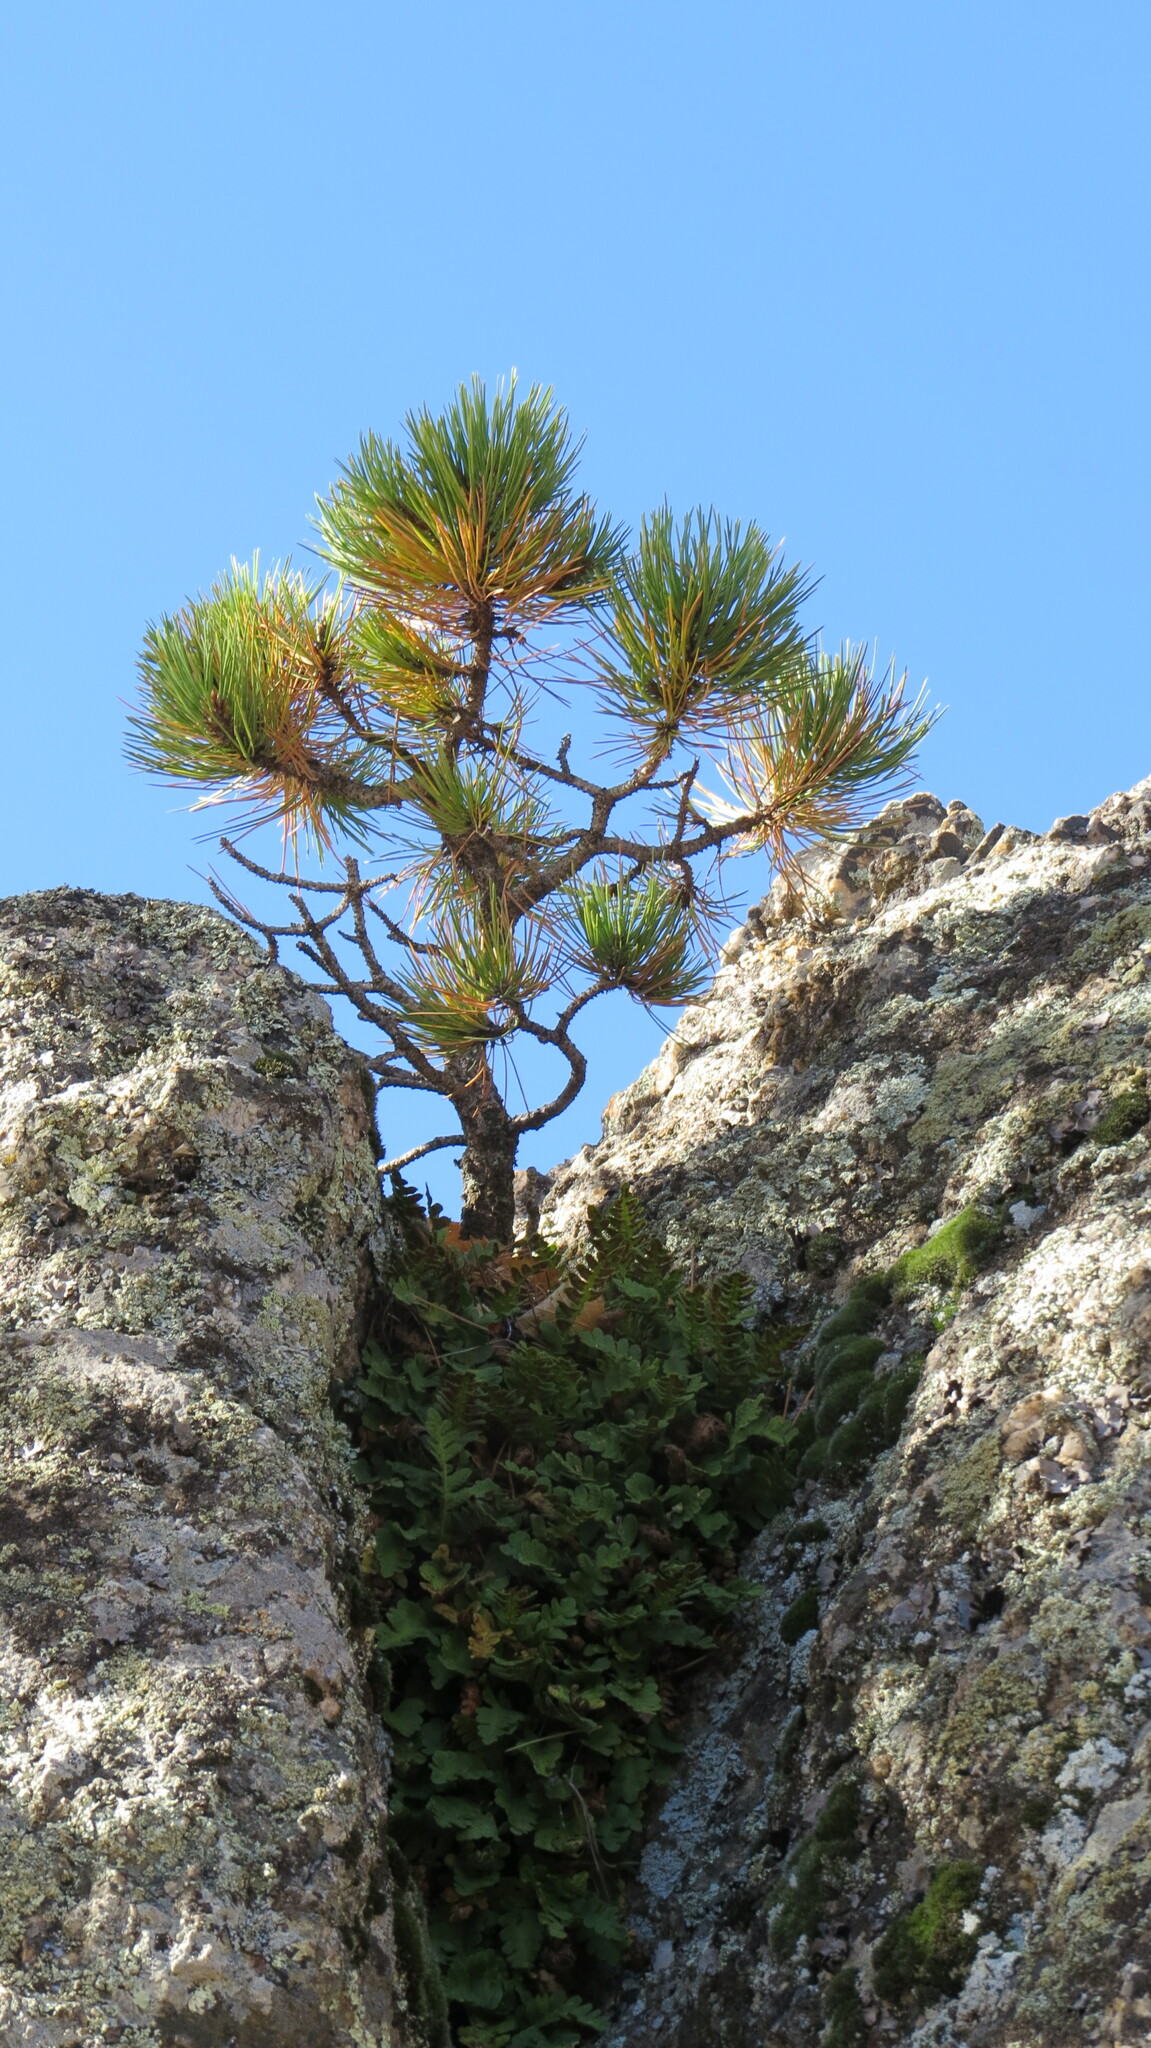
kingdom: Plantae
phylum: Tracheophyta
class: Polypodiopsida
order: Polypodiales
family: Polypodiaceae
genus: Polypodium
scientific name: Polypodium saximontanum
